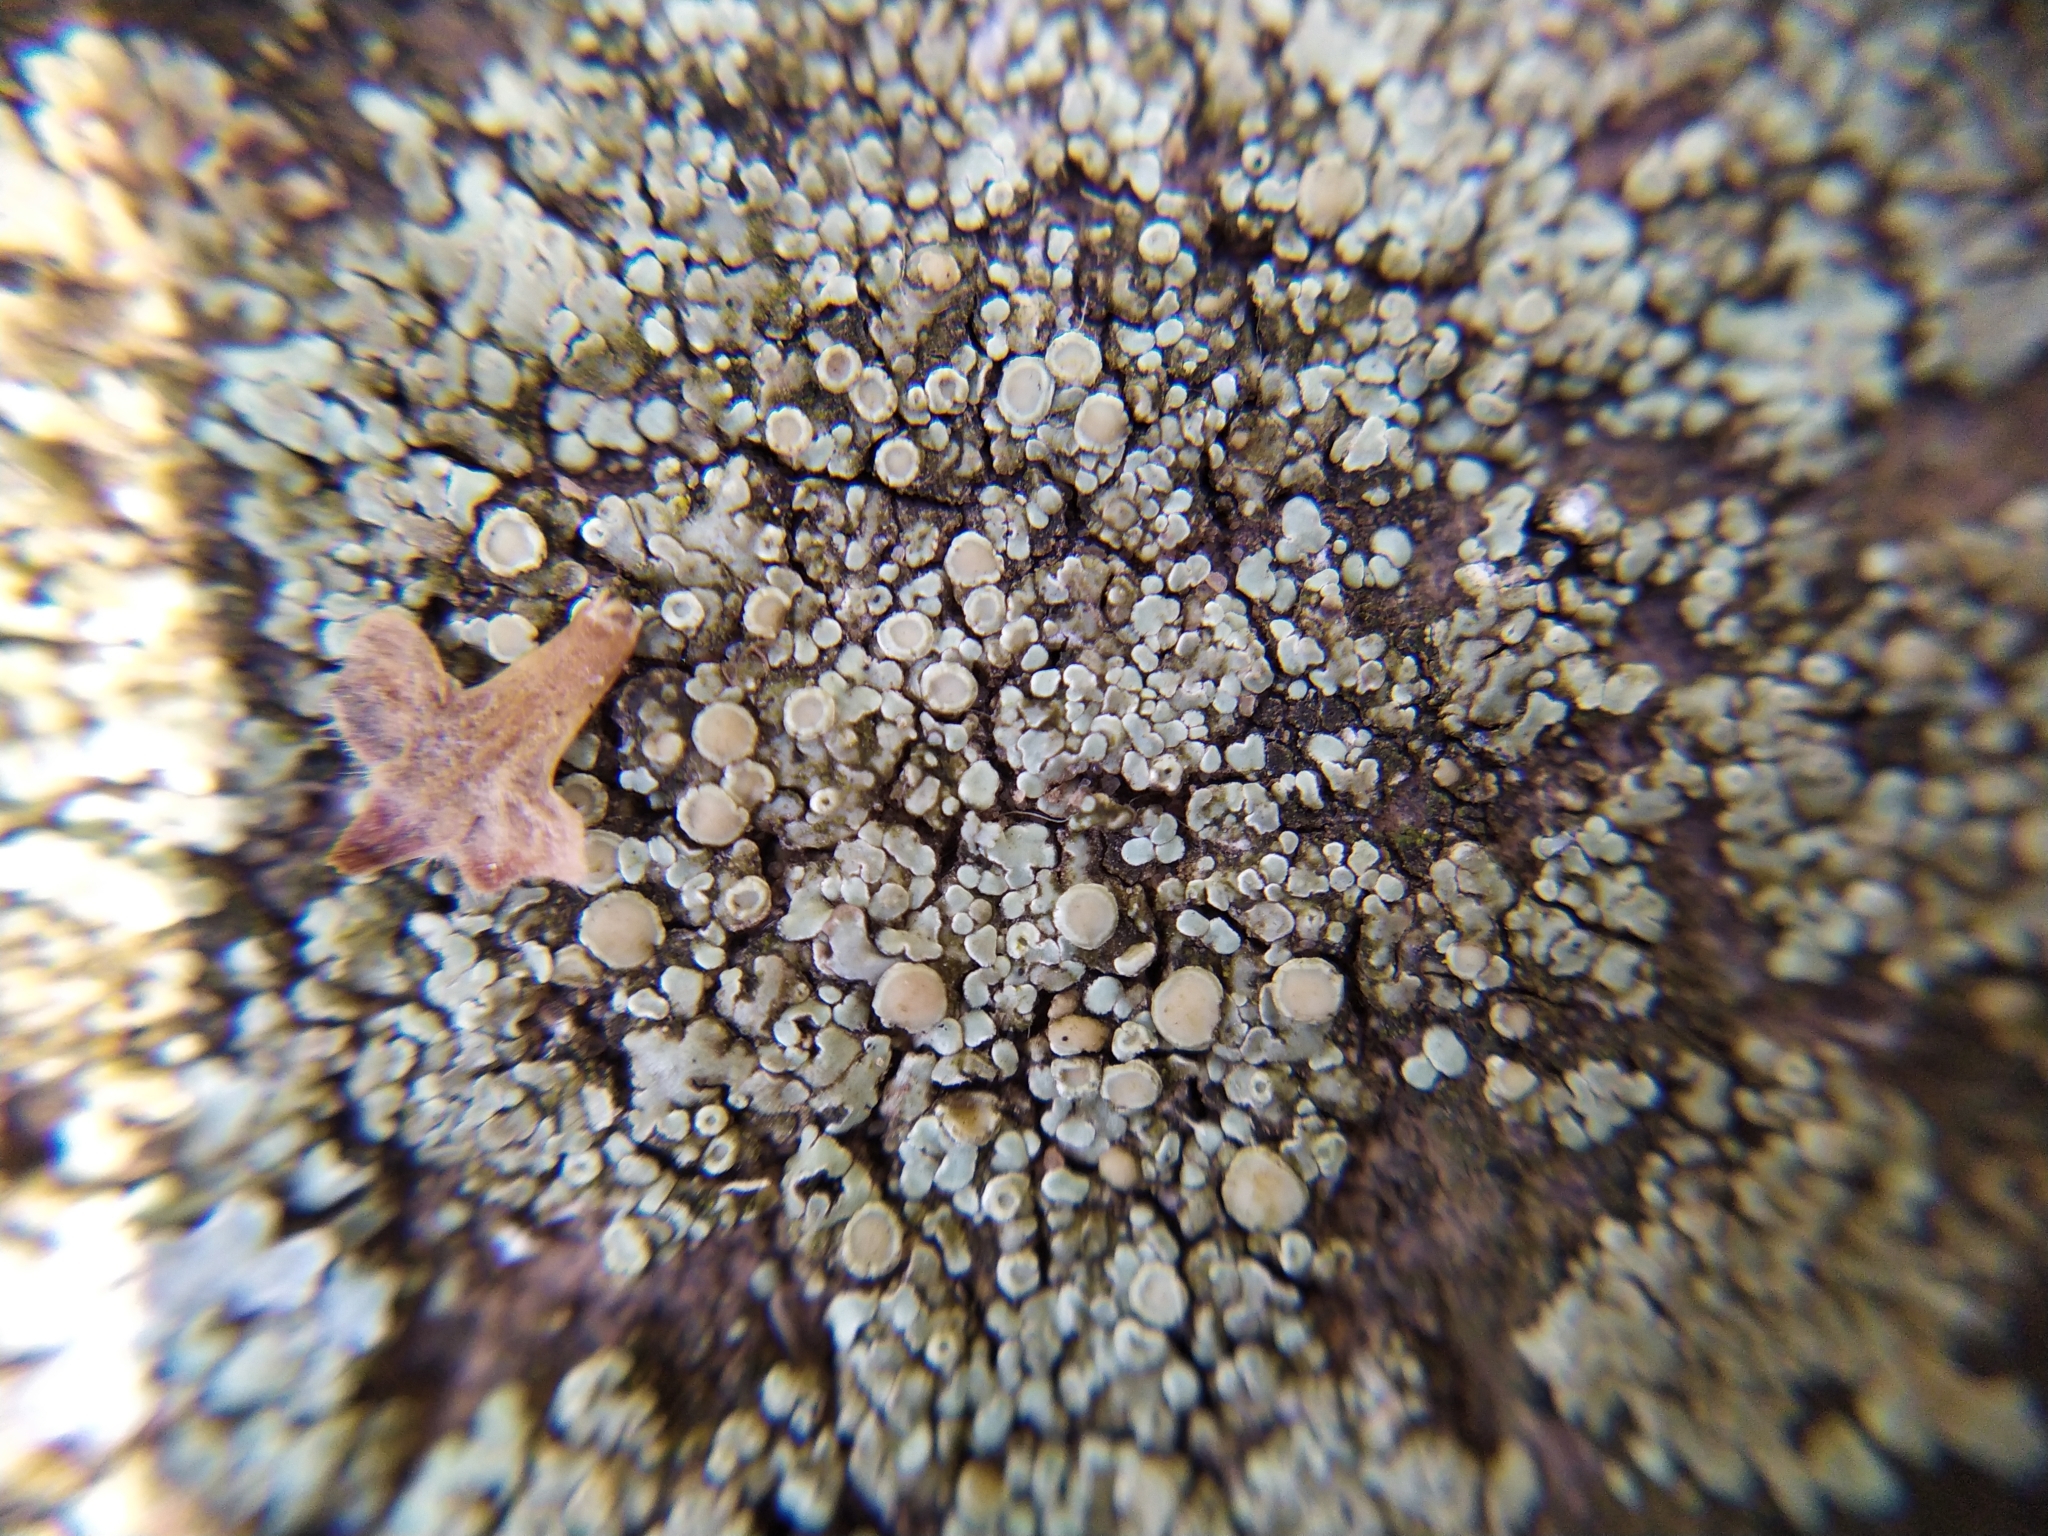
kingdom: Fungi
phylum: Ascomycota
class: Lecanoromycetes
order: Lecanorales
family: Lecanoraceae
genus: Protoparmeliopsis
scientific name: Protoparmeliopsis muralis
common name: Stonewall rim lichen
